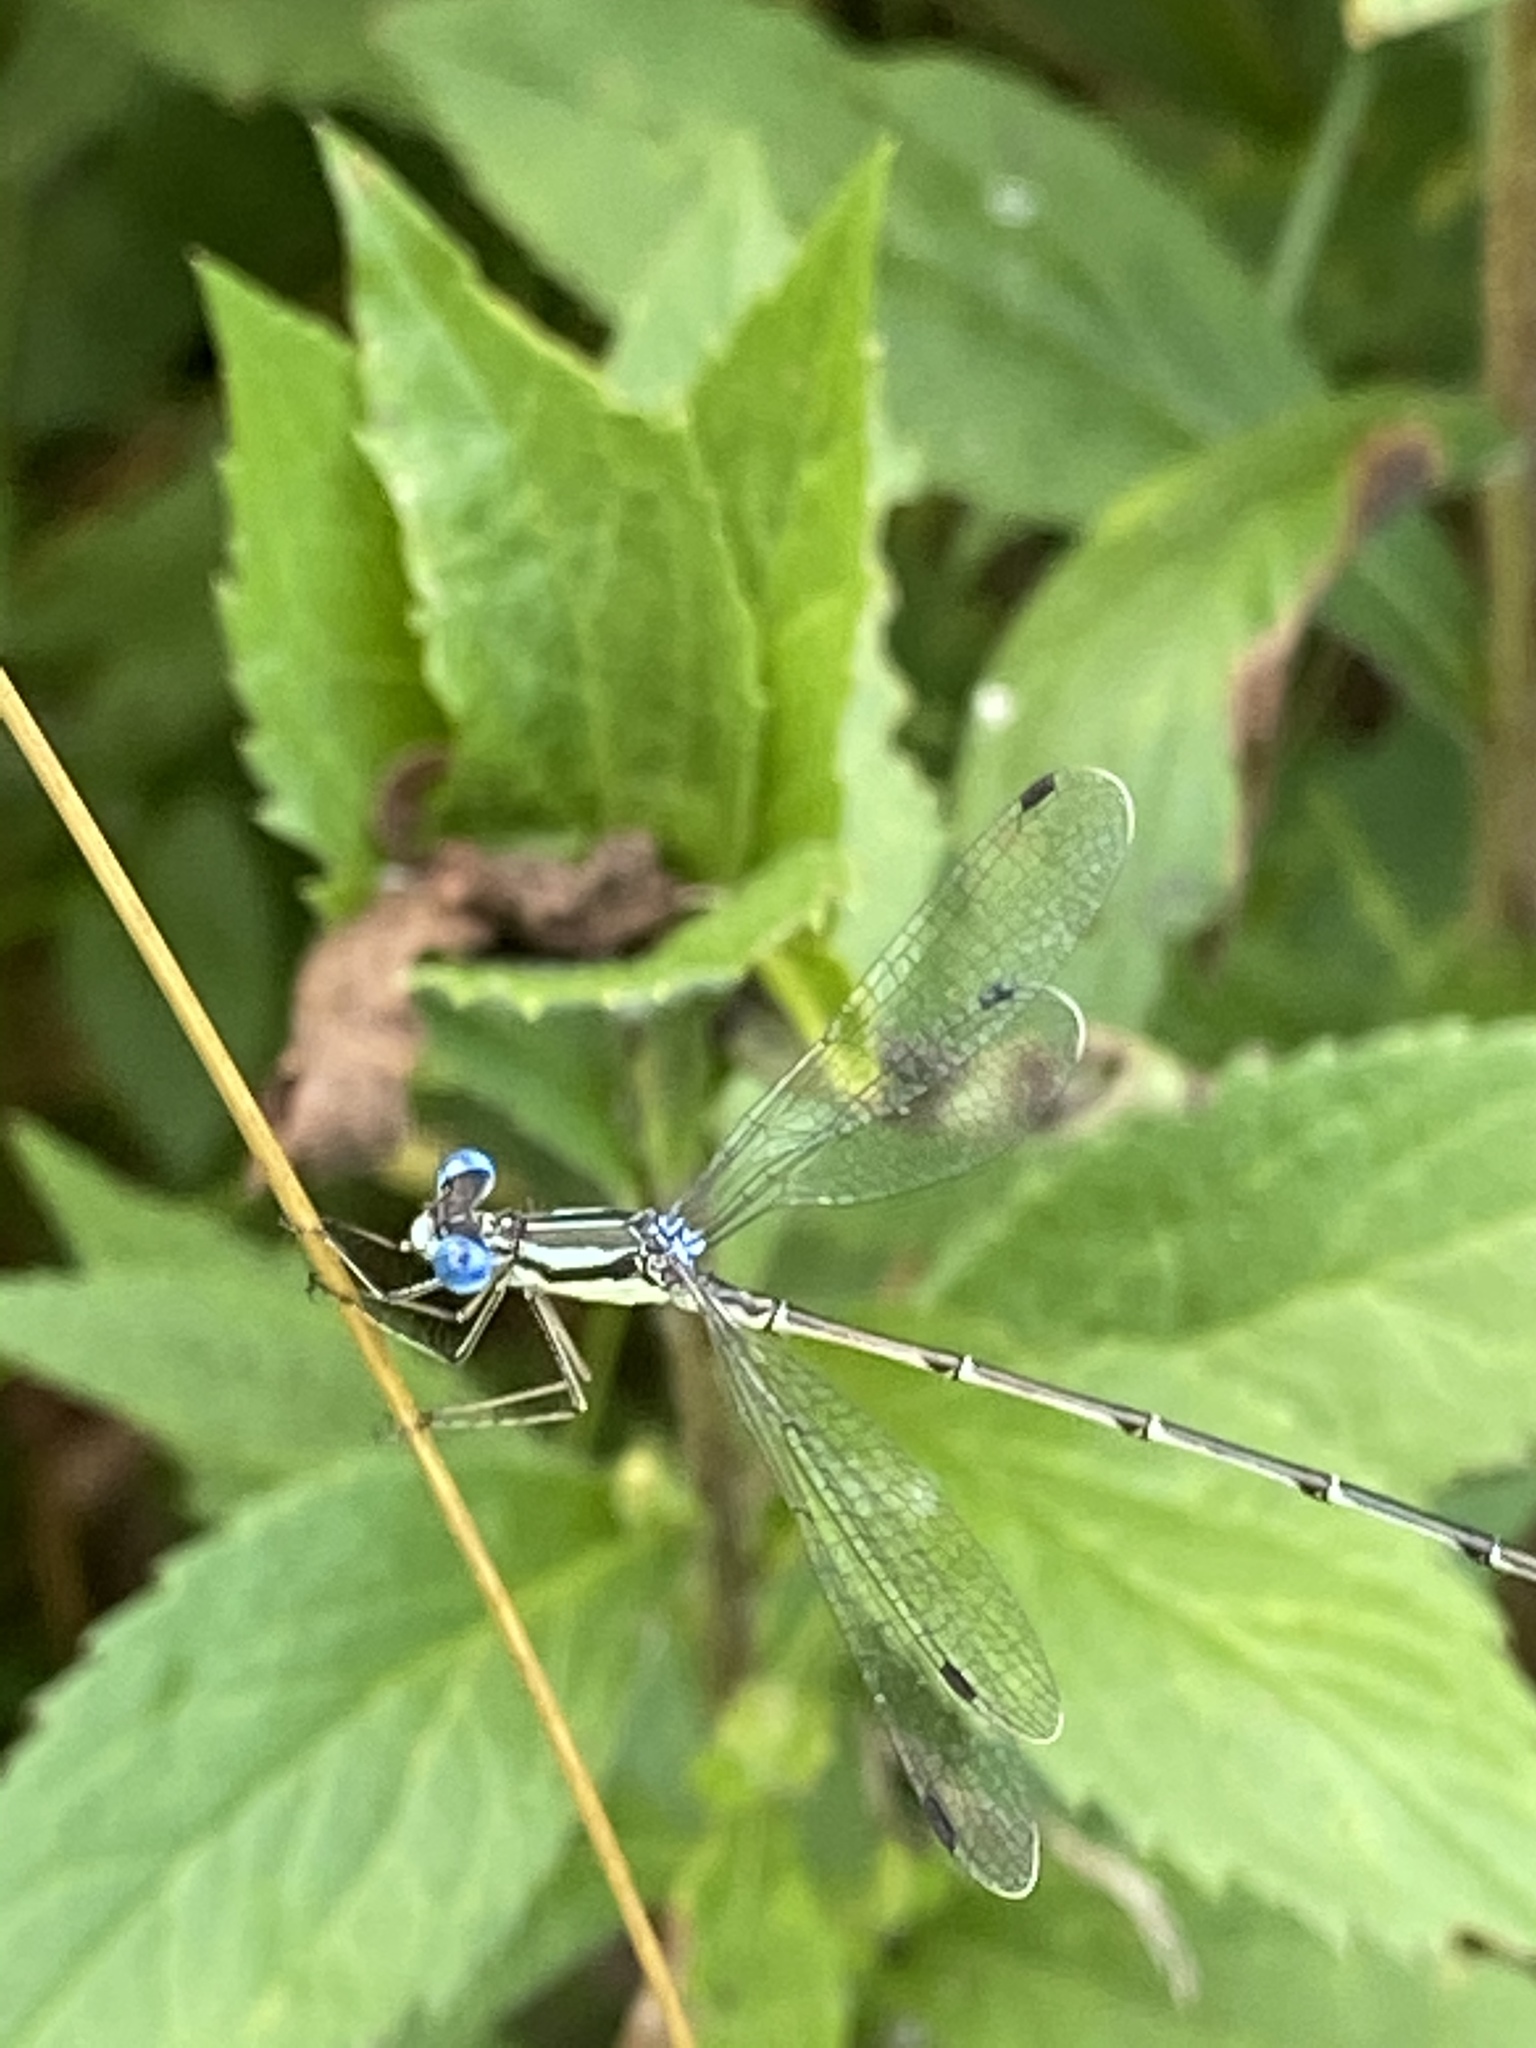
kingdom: Animalia
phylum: Arthropoda
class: Insecta
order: Odonata
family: Lestidae
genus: Lestes
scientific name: Lestes rectangularis
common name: Slender spreadwing
